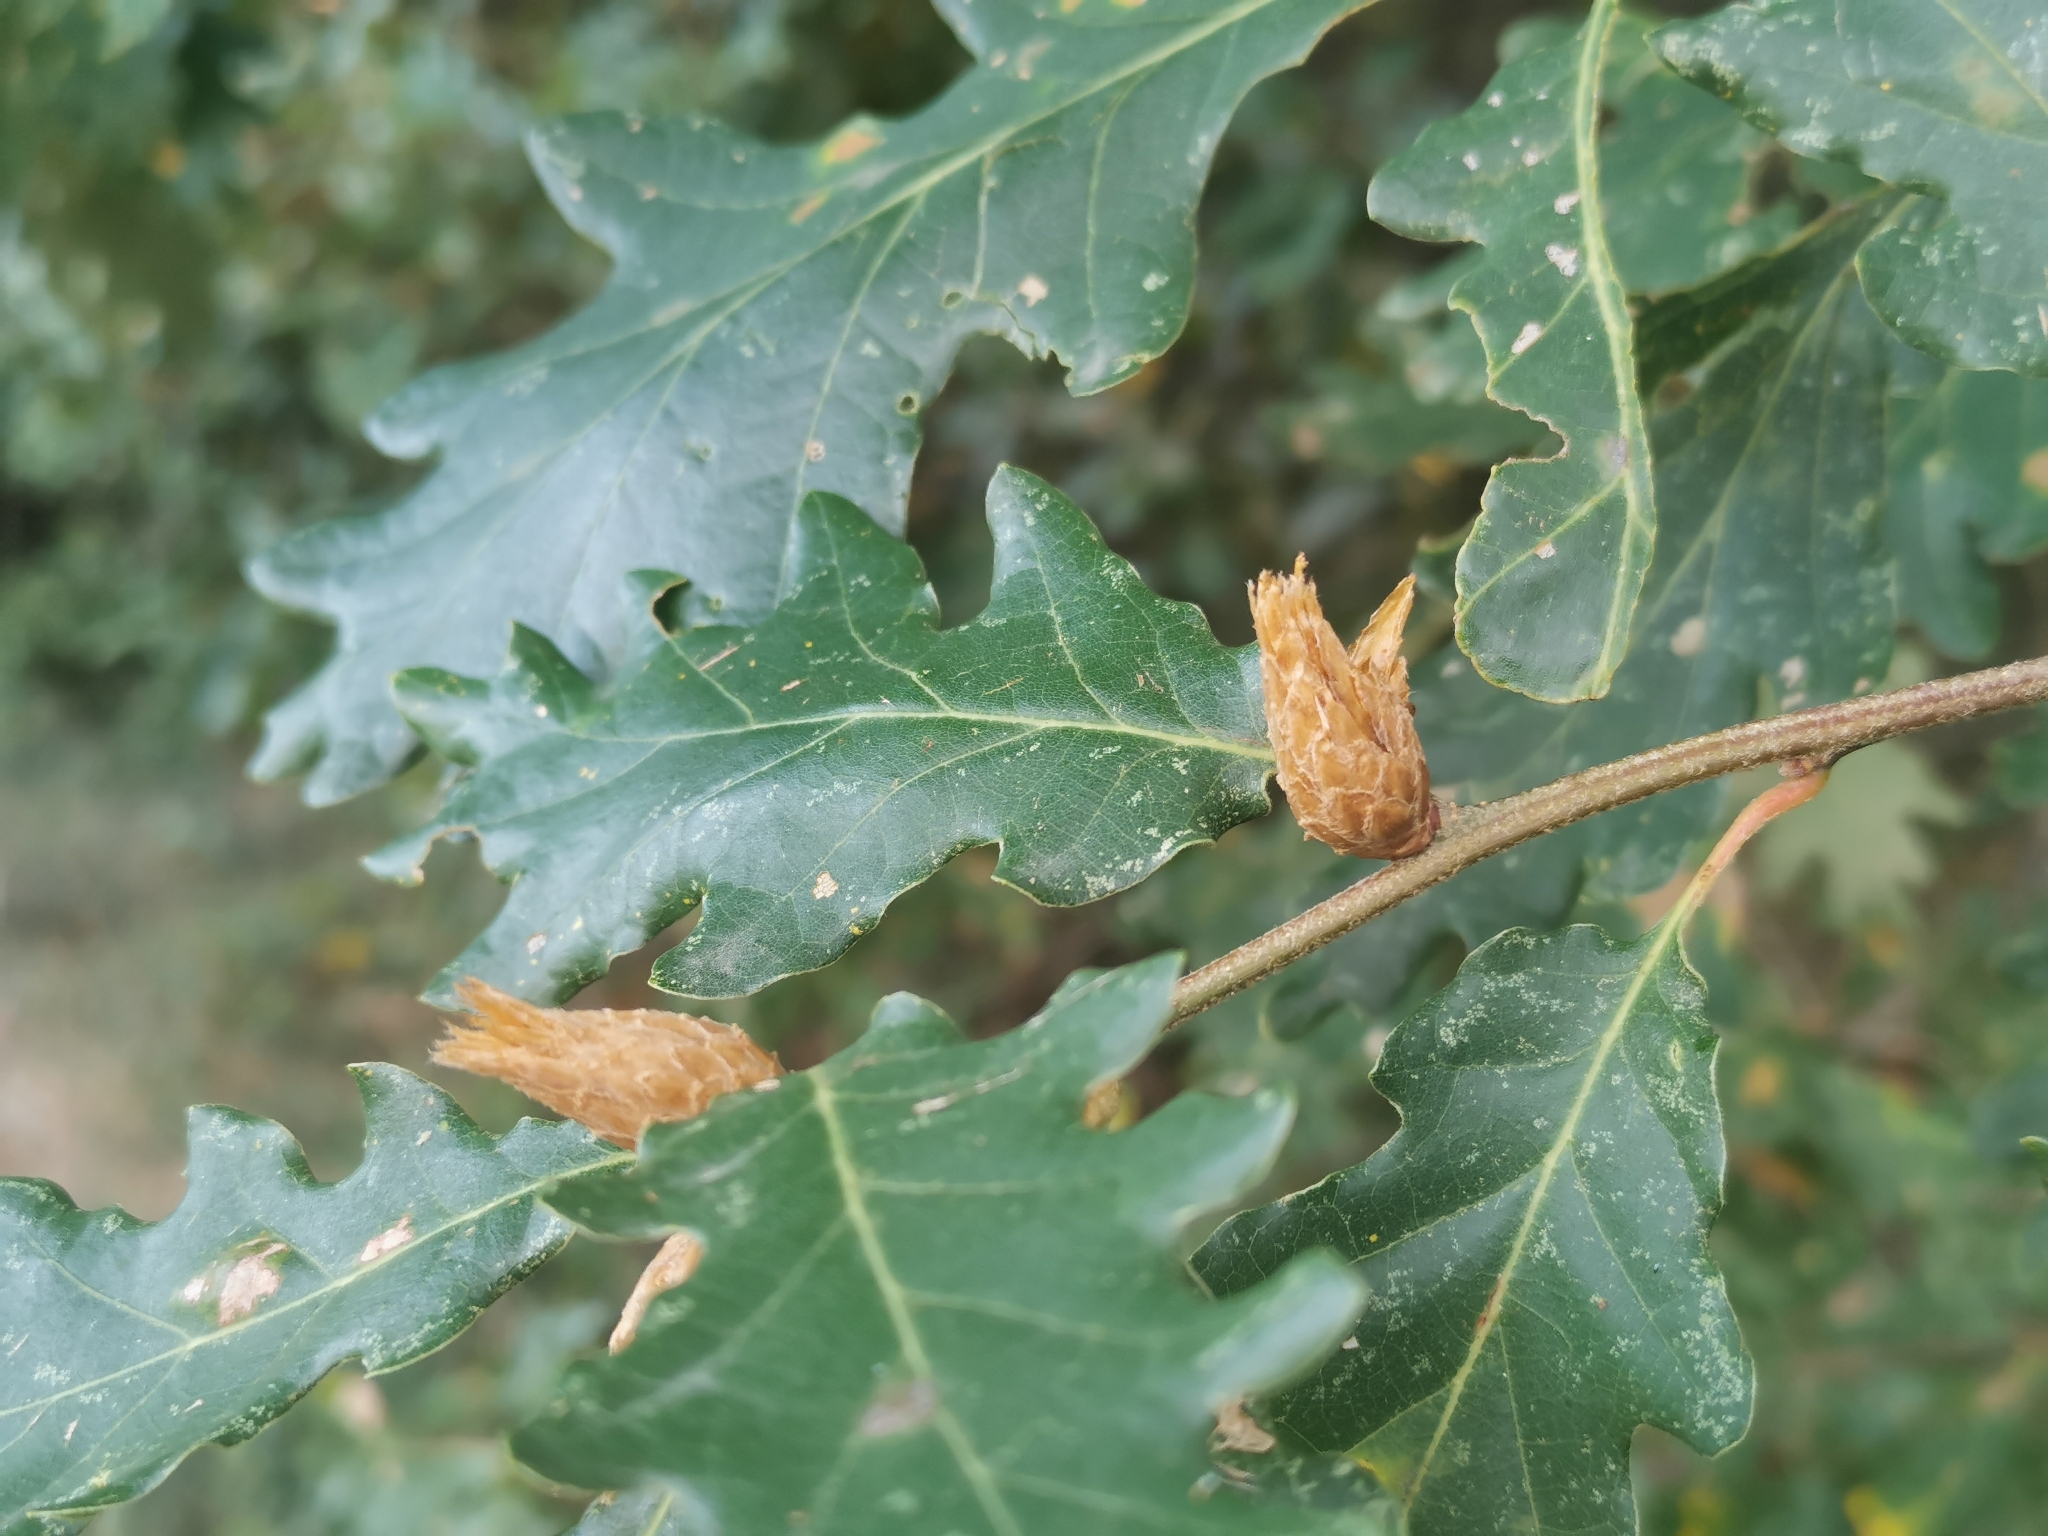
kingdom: Animalia
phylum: Arthropoda
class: Insecta
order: Hymenoptera
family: Cynipidae
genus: Andricus
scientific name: Andricus foecundatrix
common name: Artichoke gall
